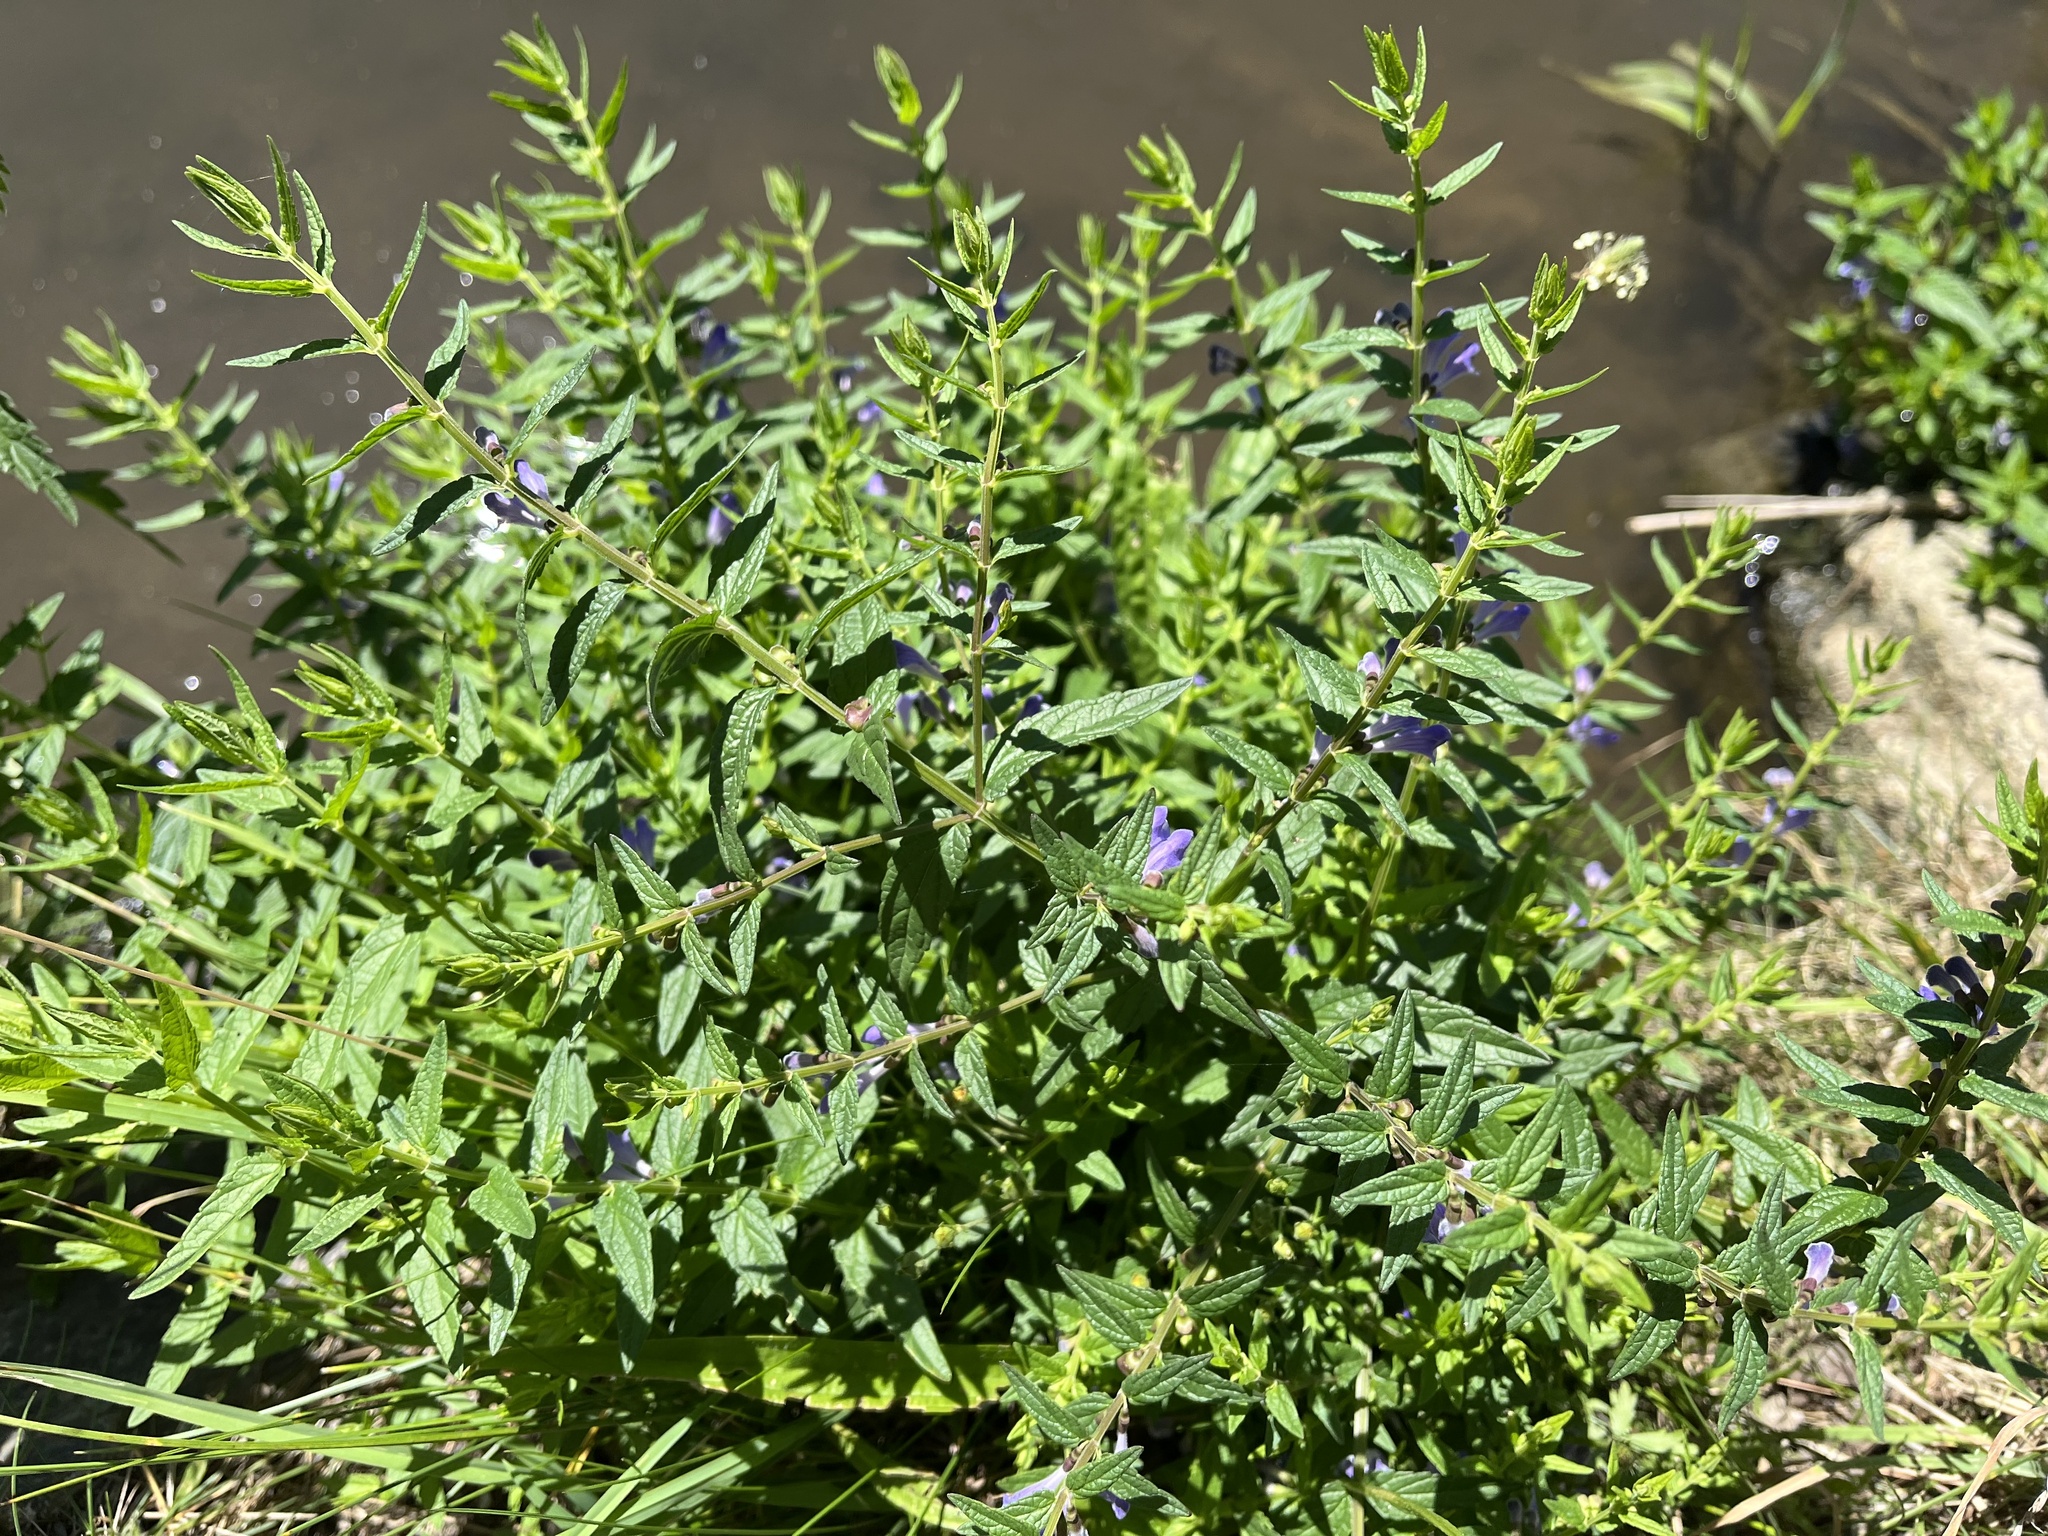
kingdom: Plantae
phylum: Tracheophyta
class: Magnoliopsida
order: Lamiales
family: Lamiaceae
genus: Scutellaria
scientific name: Scutellaria galericulata
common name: Skullcap
